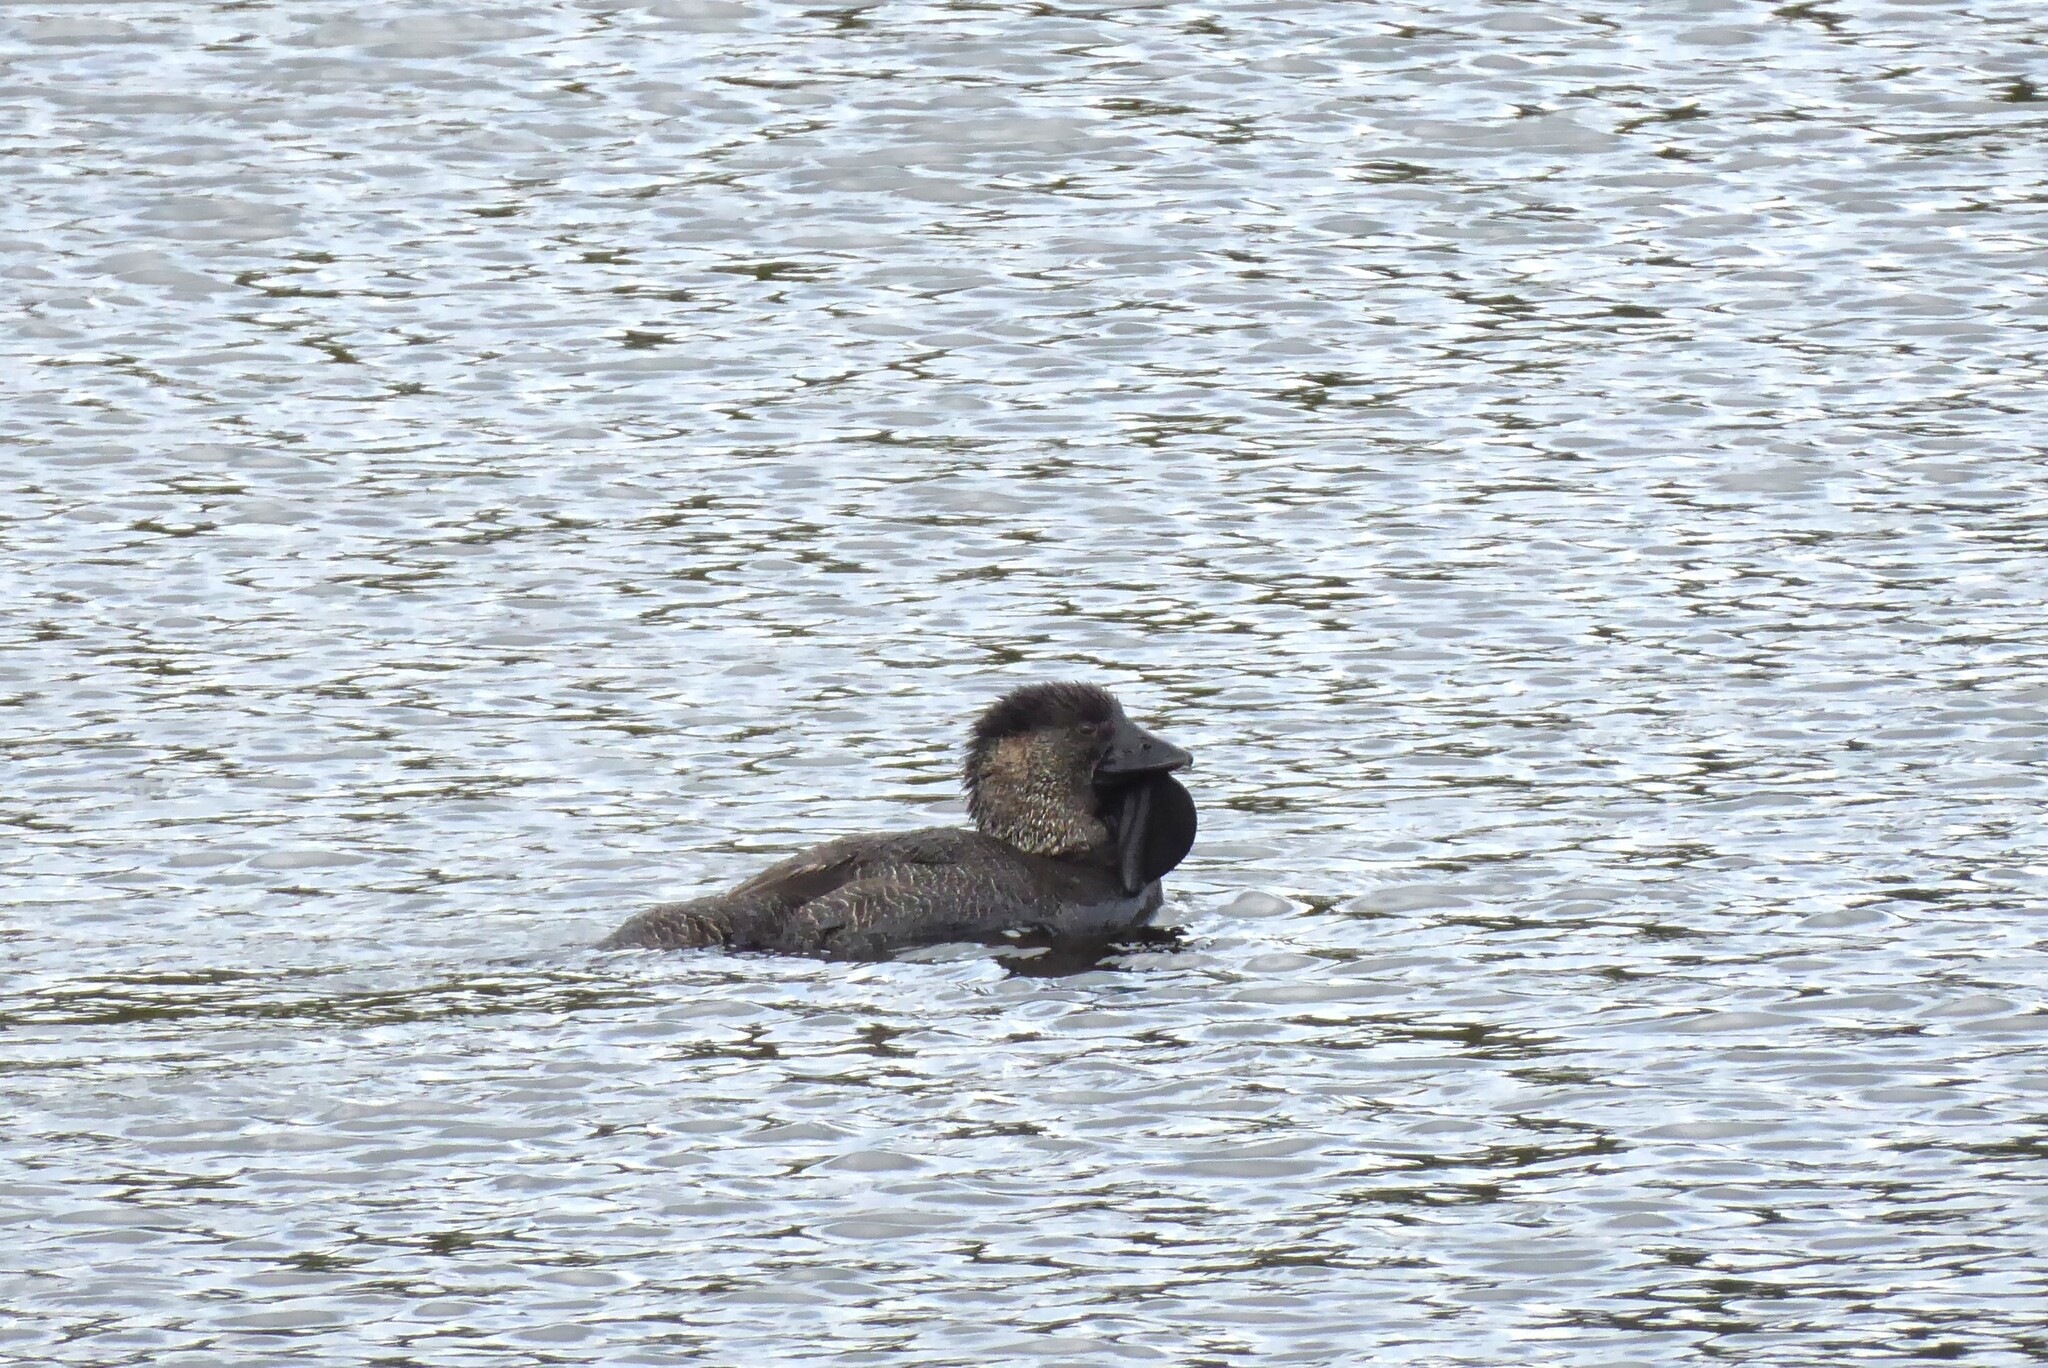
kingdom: Animalia
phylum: Chordata
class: Aves
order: Anseriformes
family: Anatidae
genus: Biziura
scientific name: Biziura lobata
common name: Musk duck
